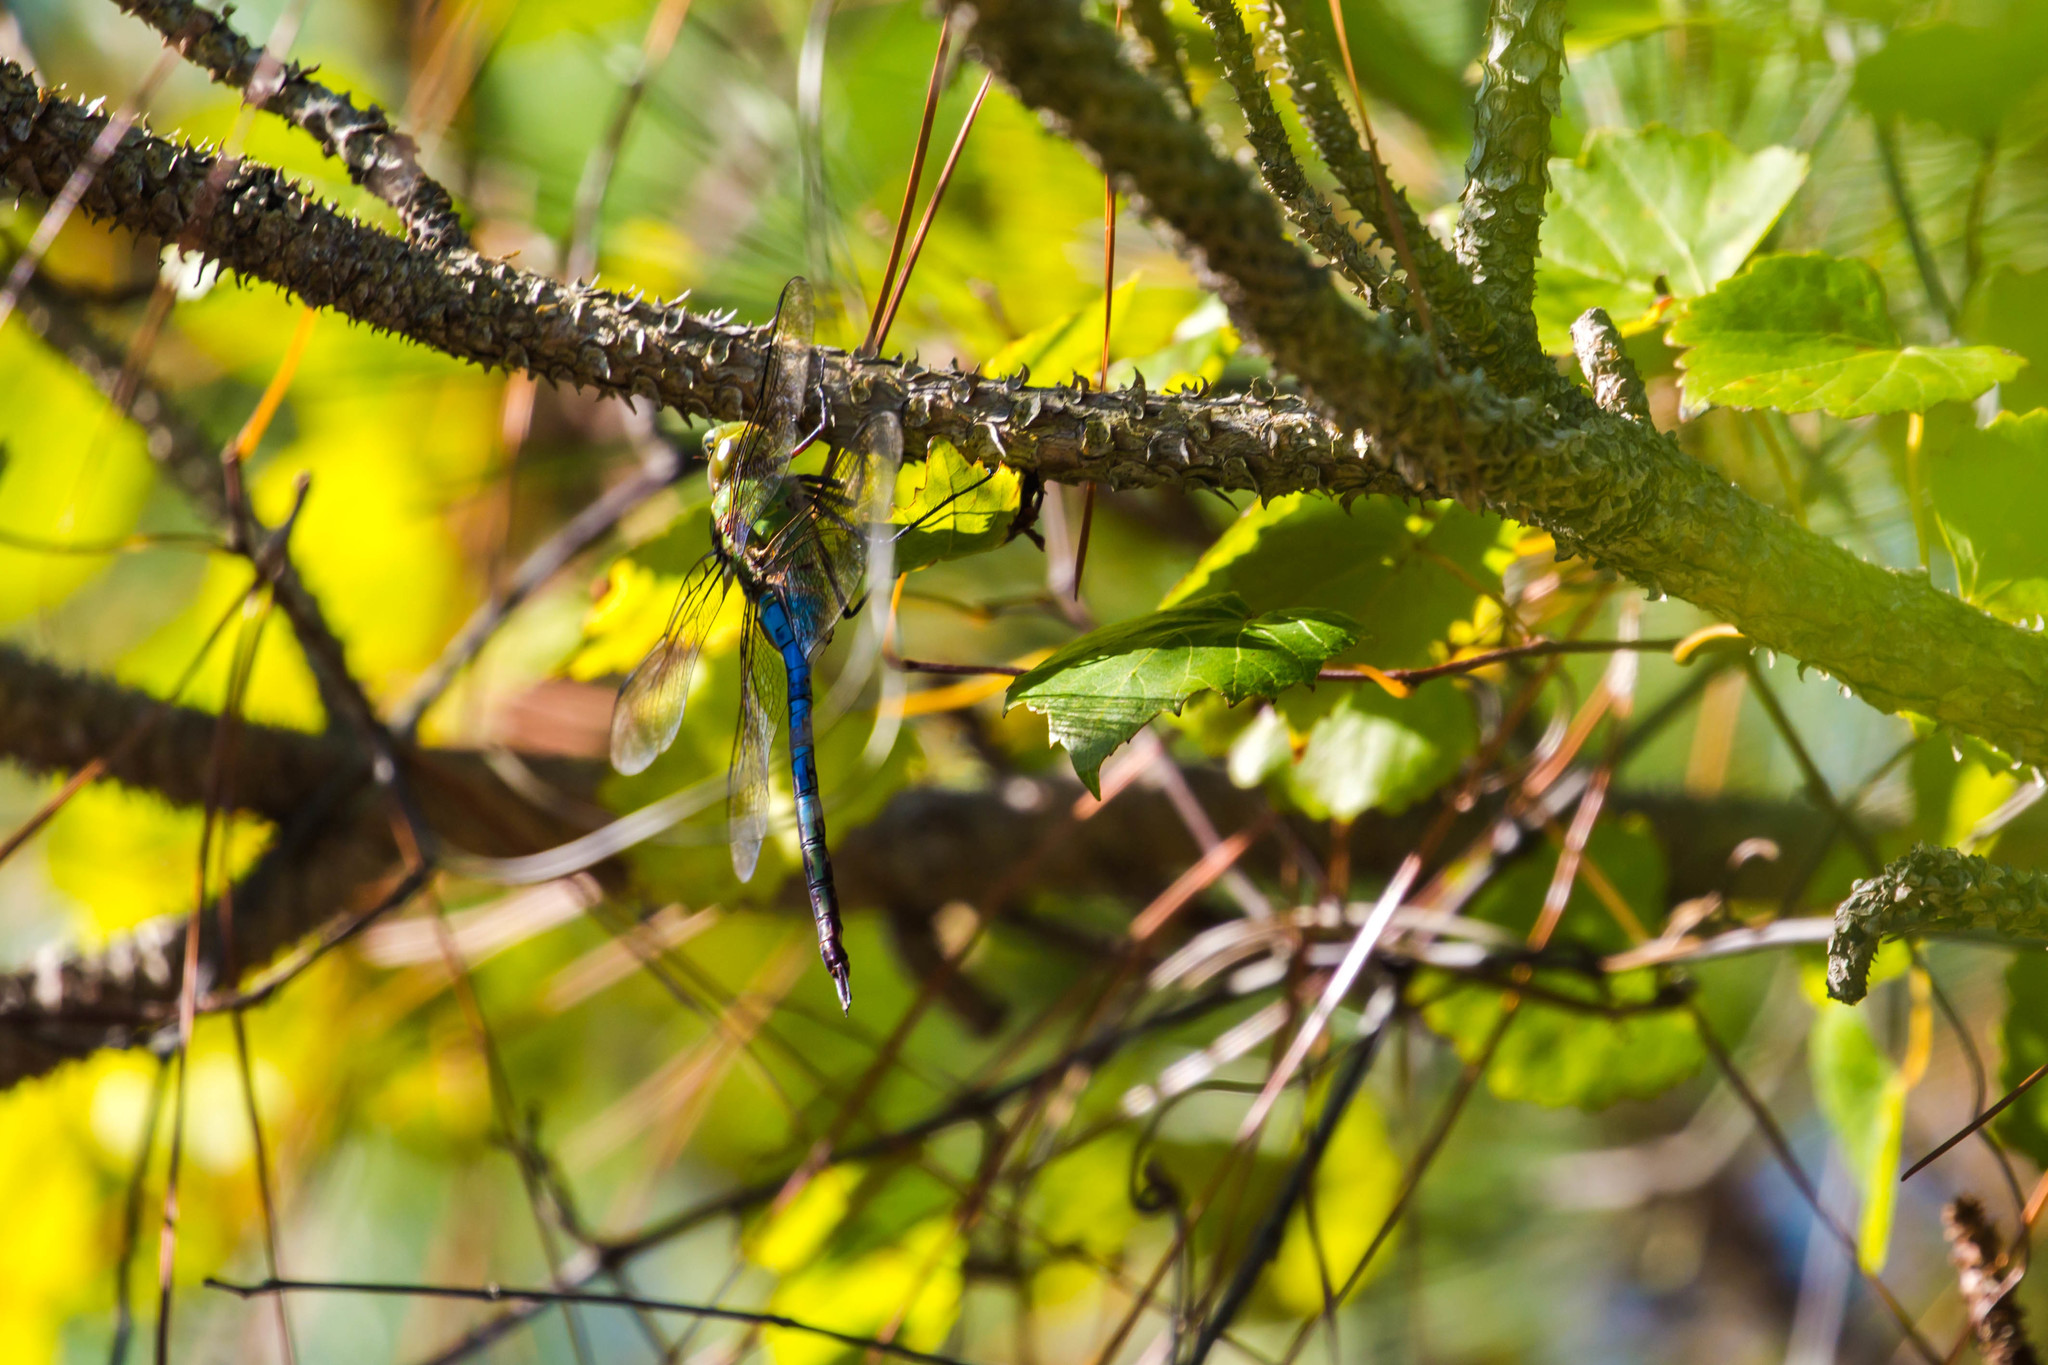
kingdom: Animalia
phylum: Arthropoda
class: Insecta
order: Odonata
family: Aeshnidae
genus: Anax
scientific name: Anax junius
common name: Common green darner
